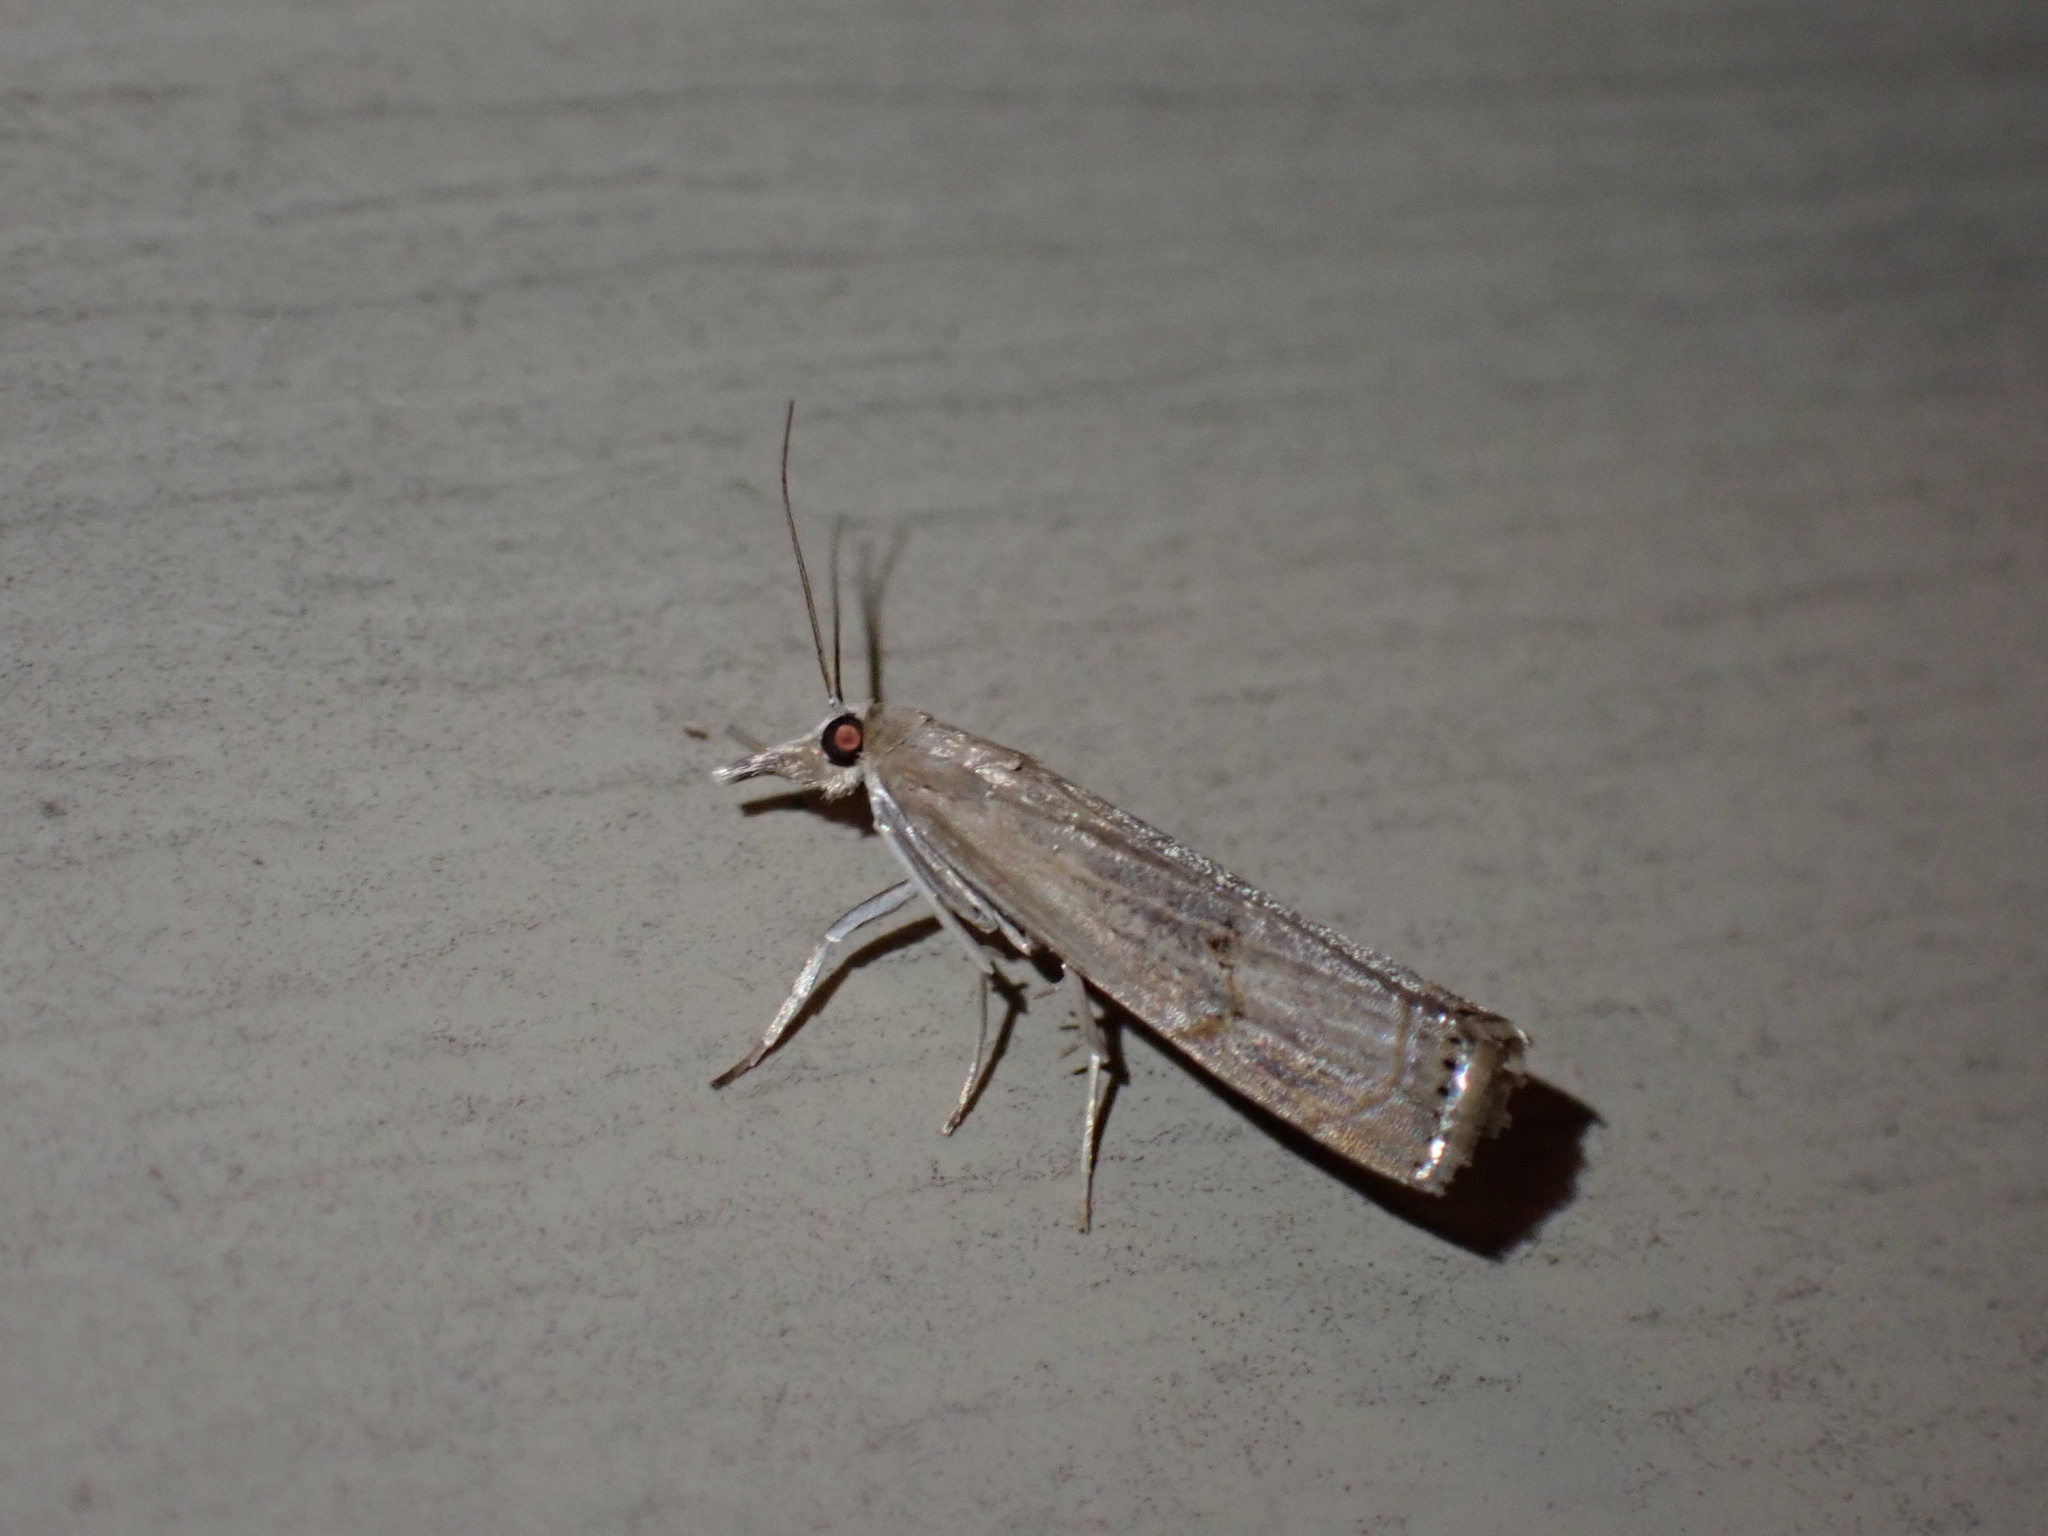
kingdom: Animalia
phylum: Arthropoda
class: Insecta
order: Lepidoptera
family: Crambidae
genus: Parapediasia
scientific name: Parapediasia teterellus
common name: Bluegrass webworm moth
